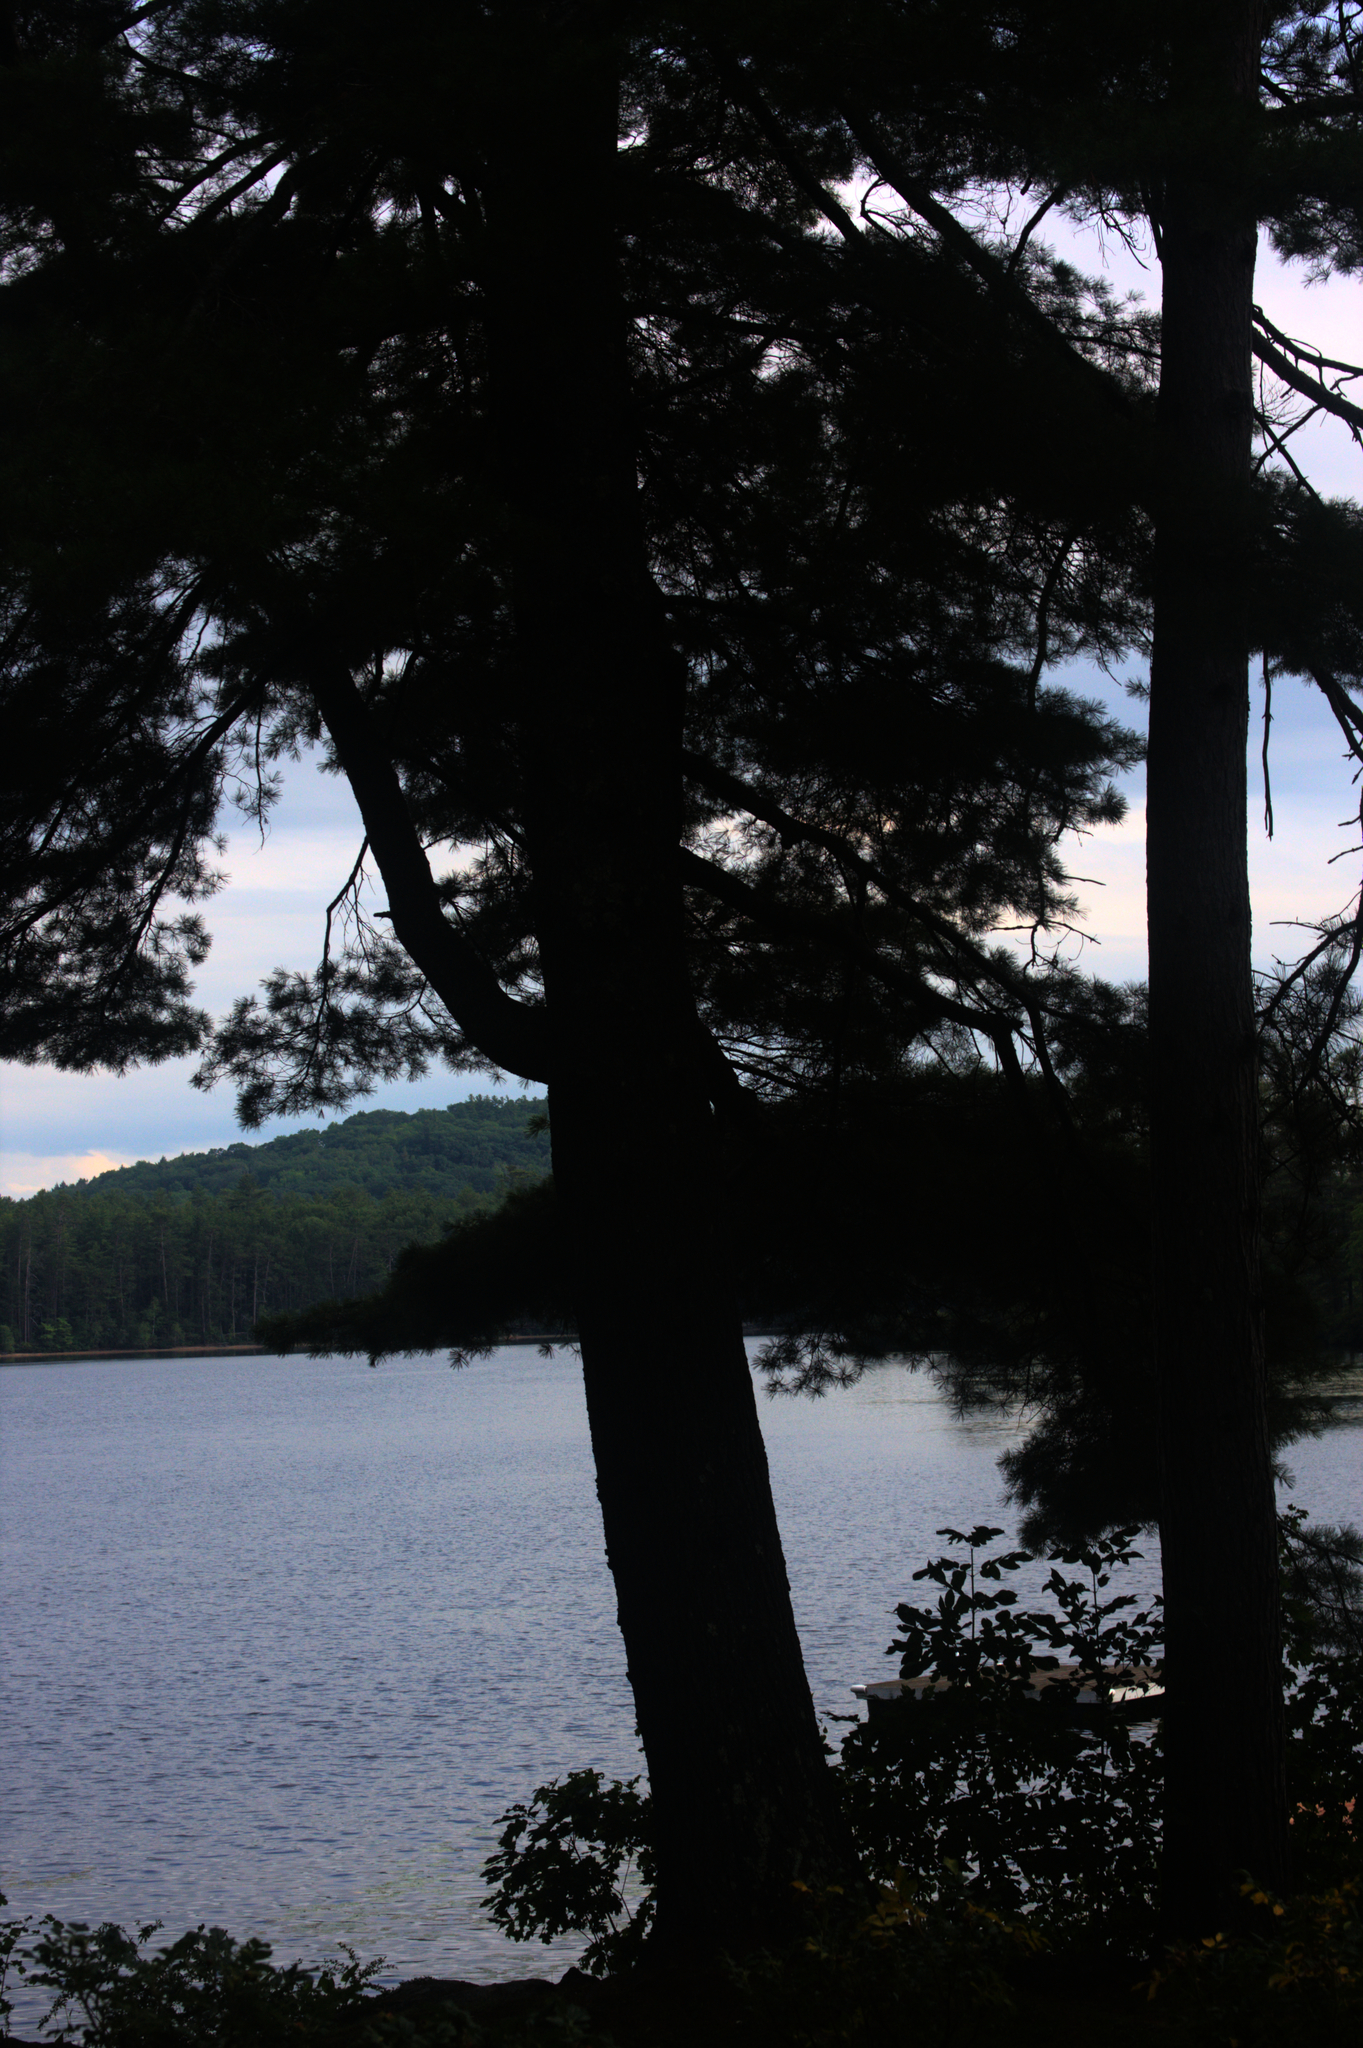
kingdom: Plantae
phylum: Tracheophyta
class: Pinopsida
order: Pinales
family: Pinaceae
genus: Pinus
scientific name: Pinus strobus
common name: Weymouth pine
